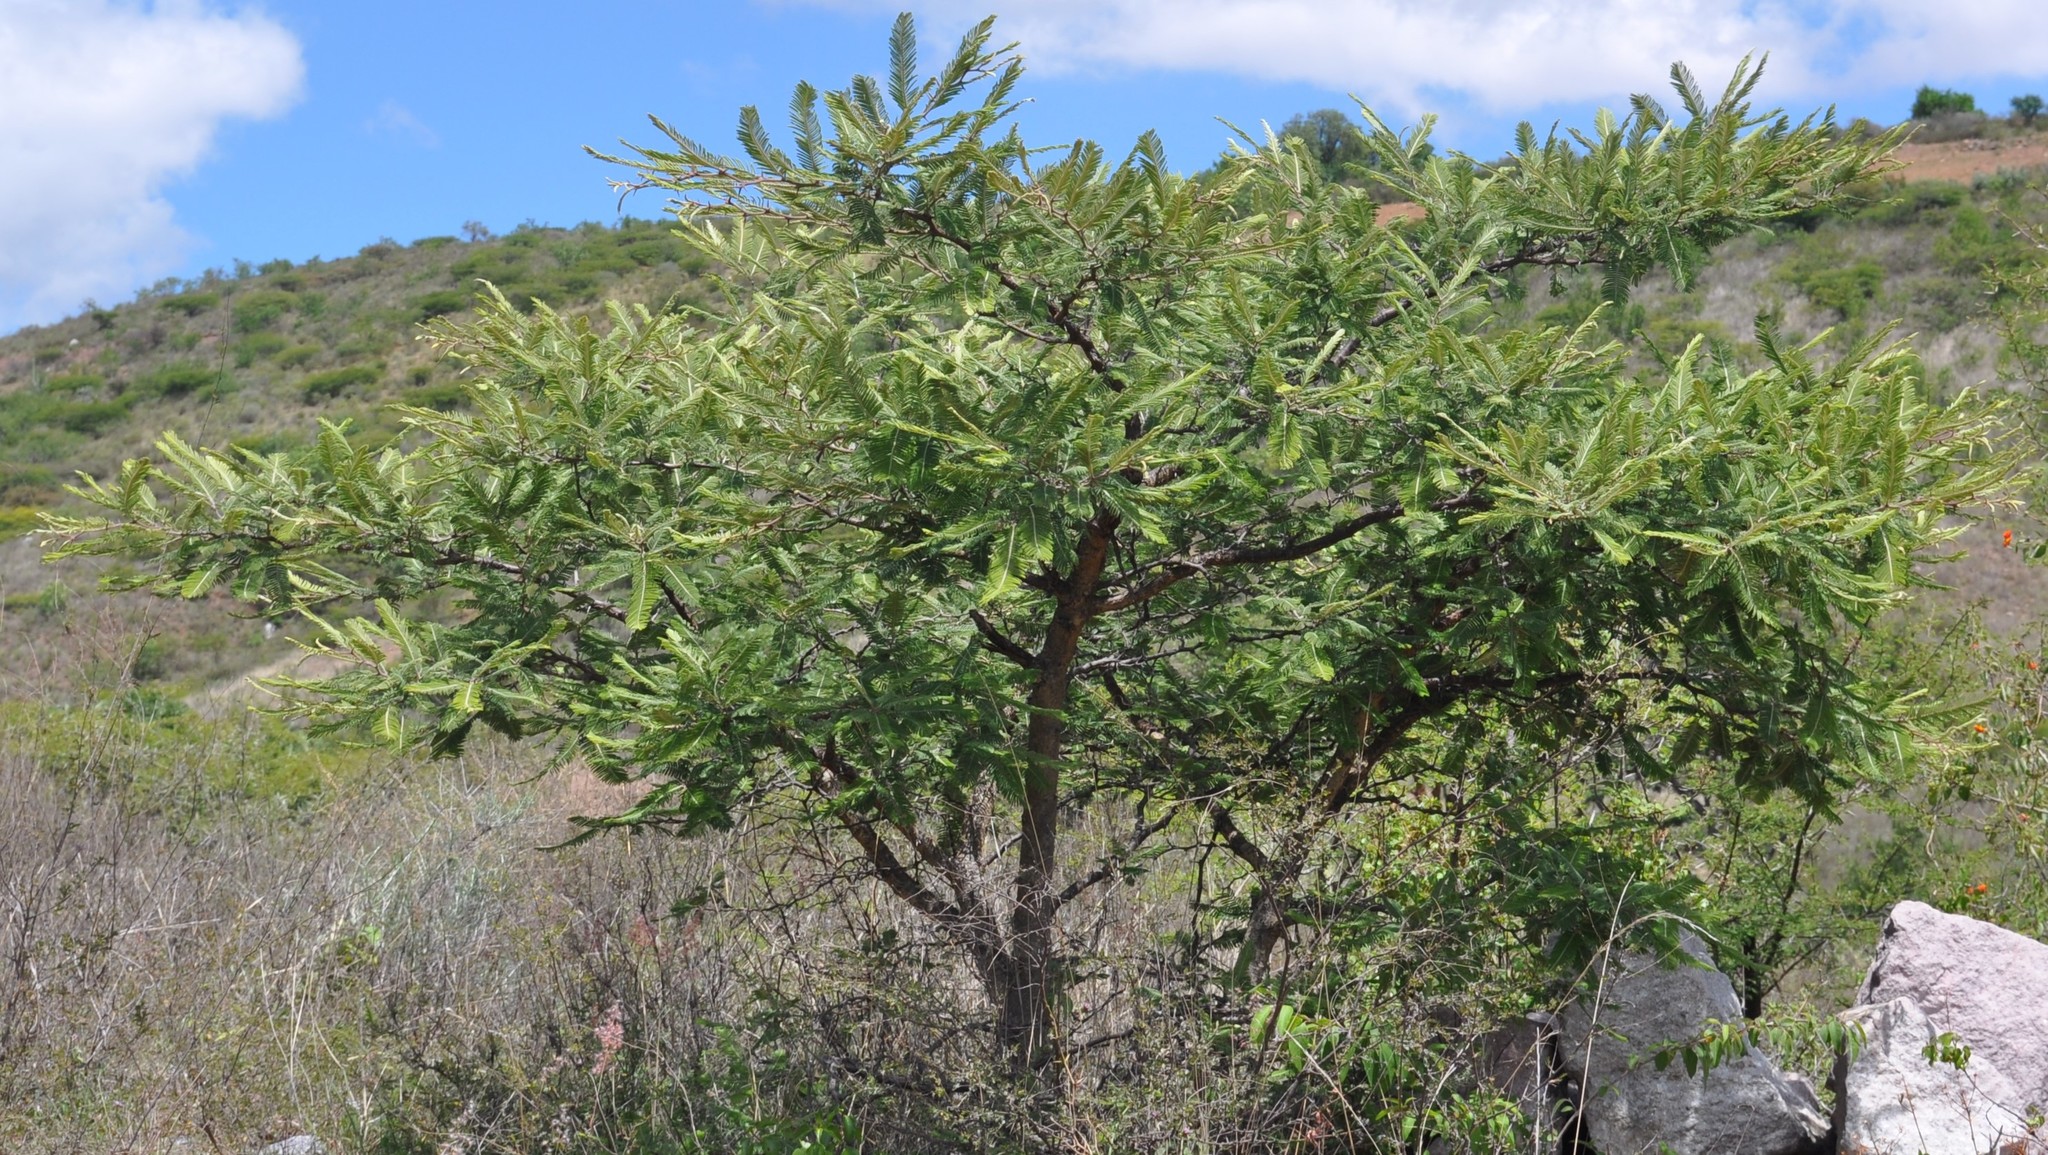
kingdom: Plantae
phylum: Tracheophyta
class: Magnoliopsida
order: Fabales
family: Fabaceae
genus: Vachellia
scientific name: Vachellia pennatula
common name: Fern-leaf acacia
